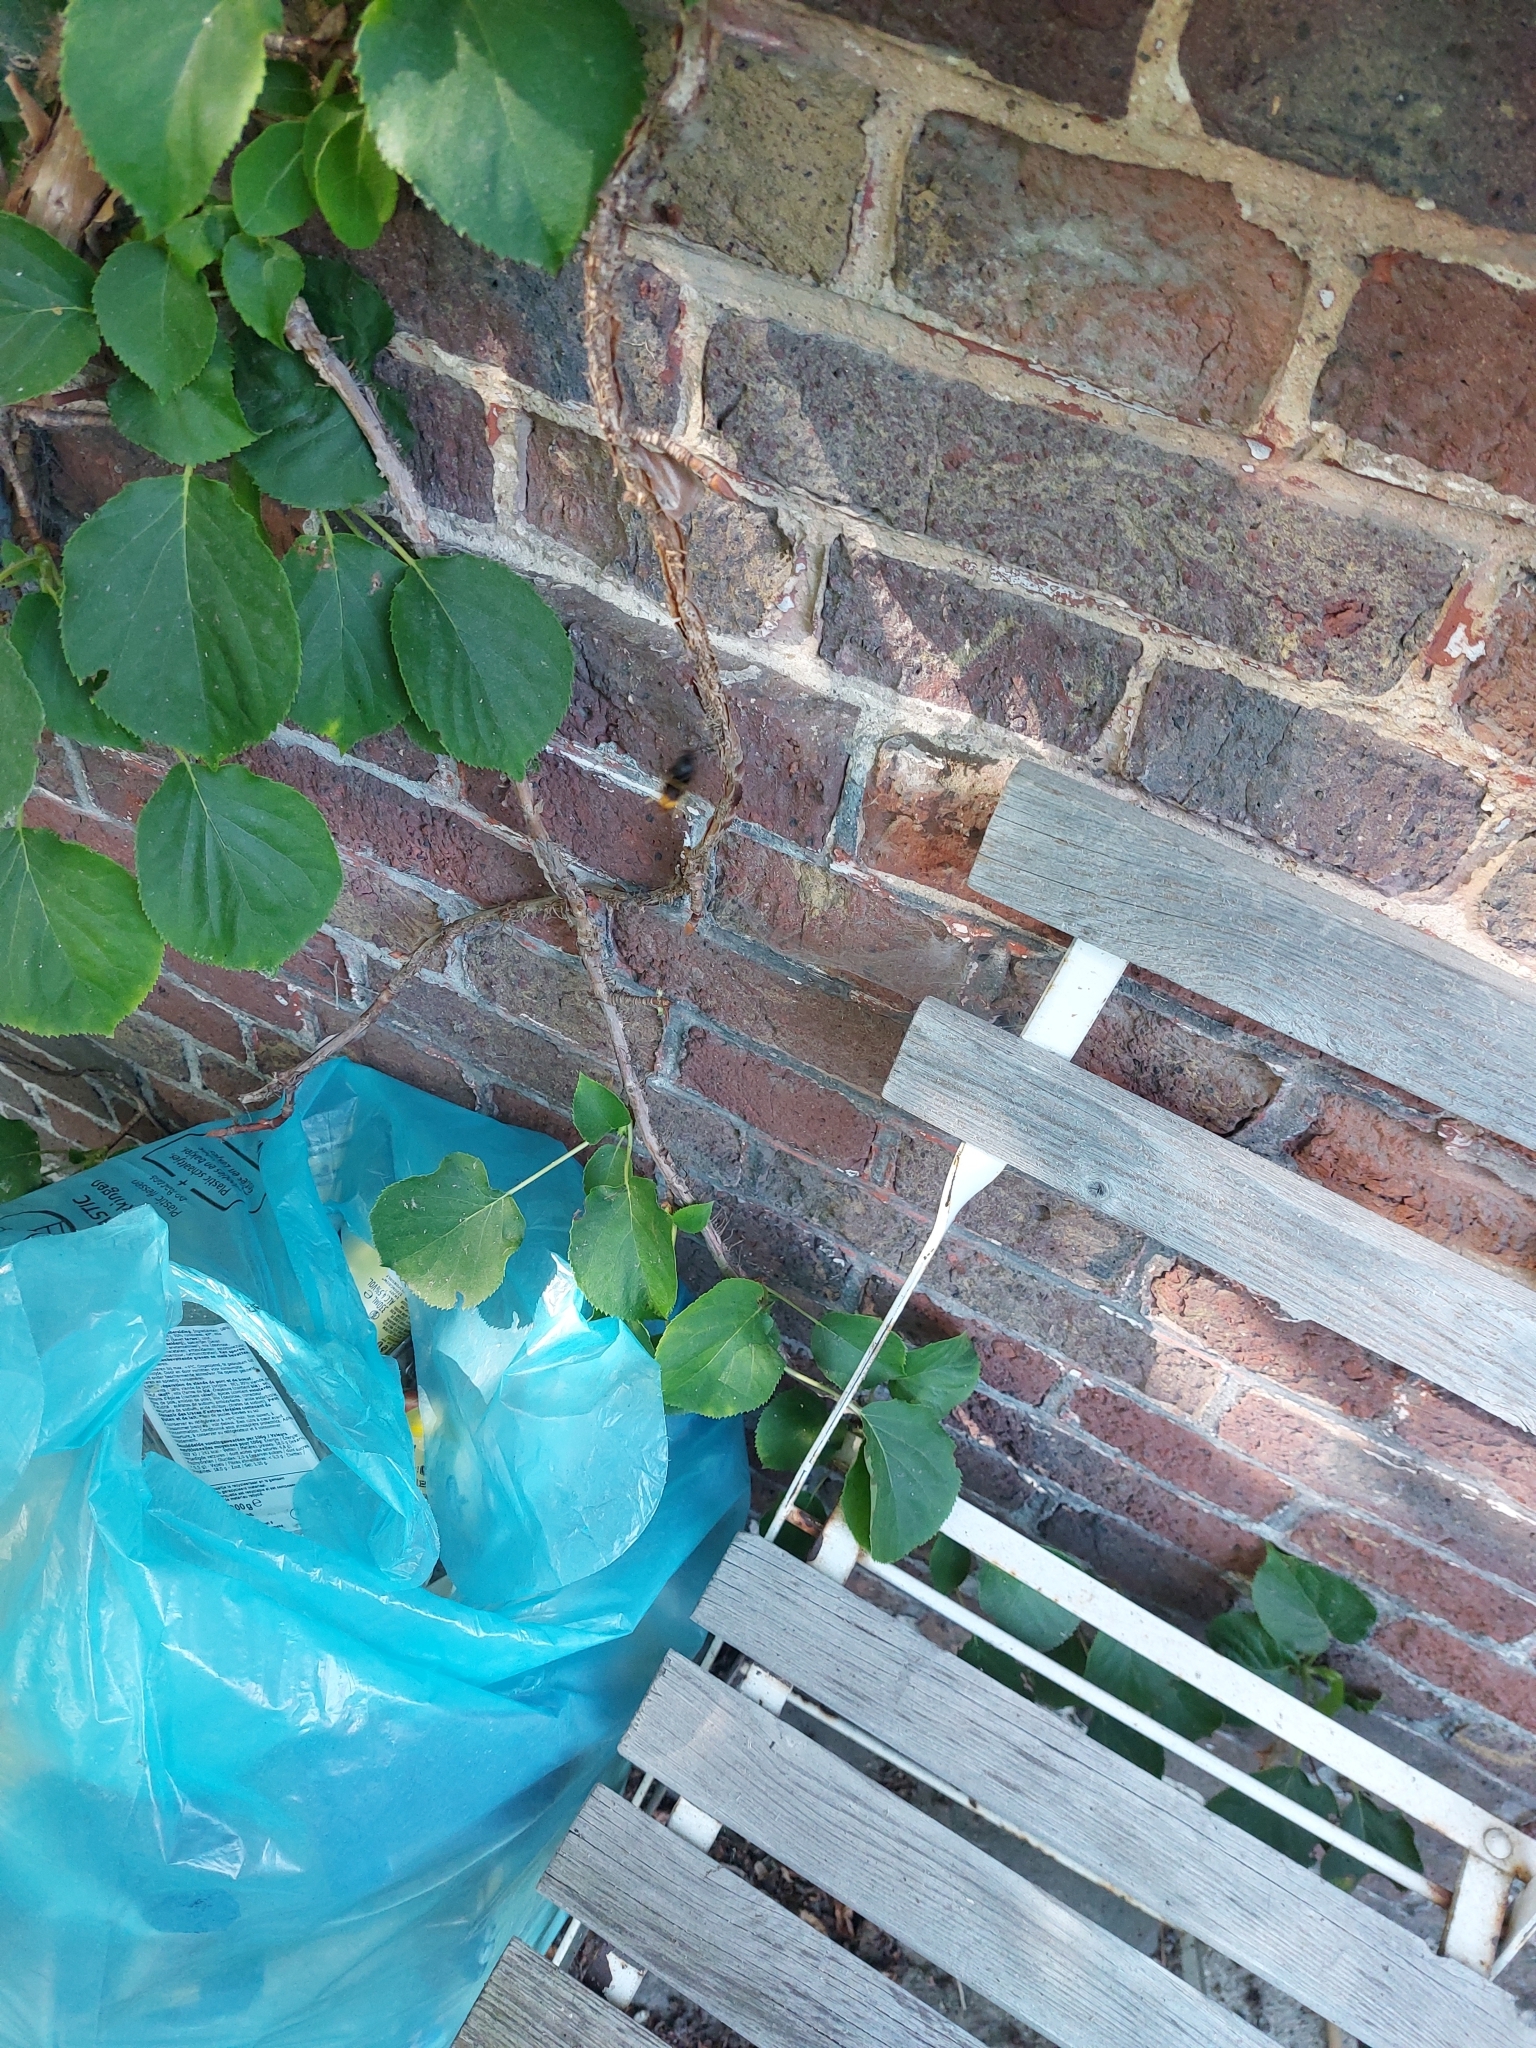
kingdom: Animalia
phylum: Arthropoda
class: Insecta
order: Hymenoptera
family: Vespidae
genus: Vespa
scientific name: Vespa velutina
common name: Asian hornet
